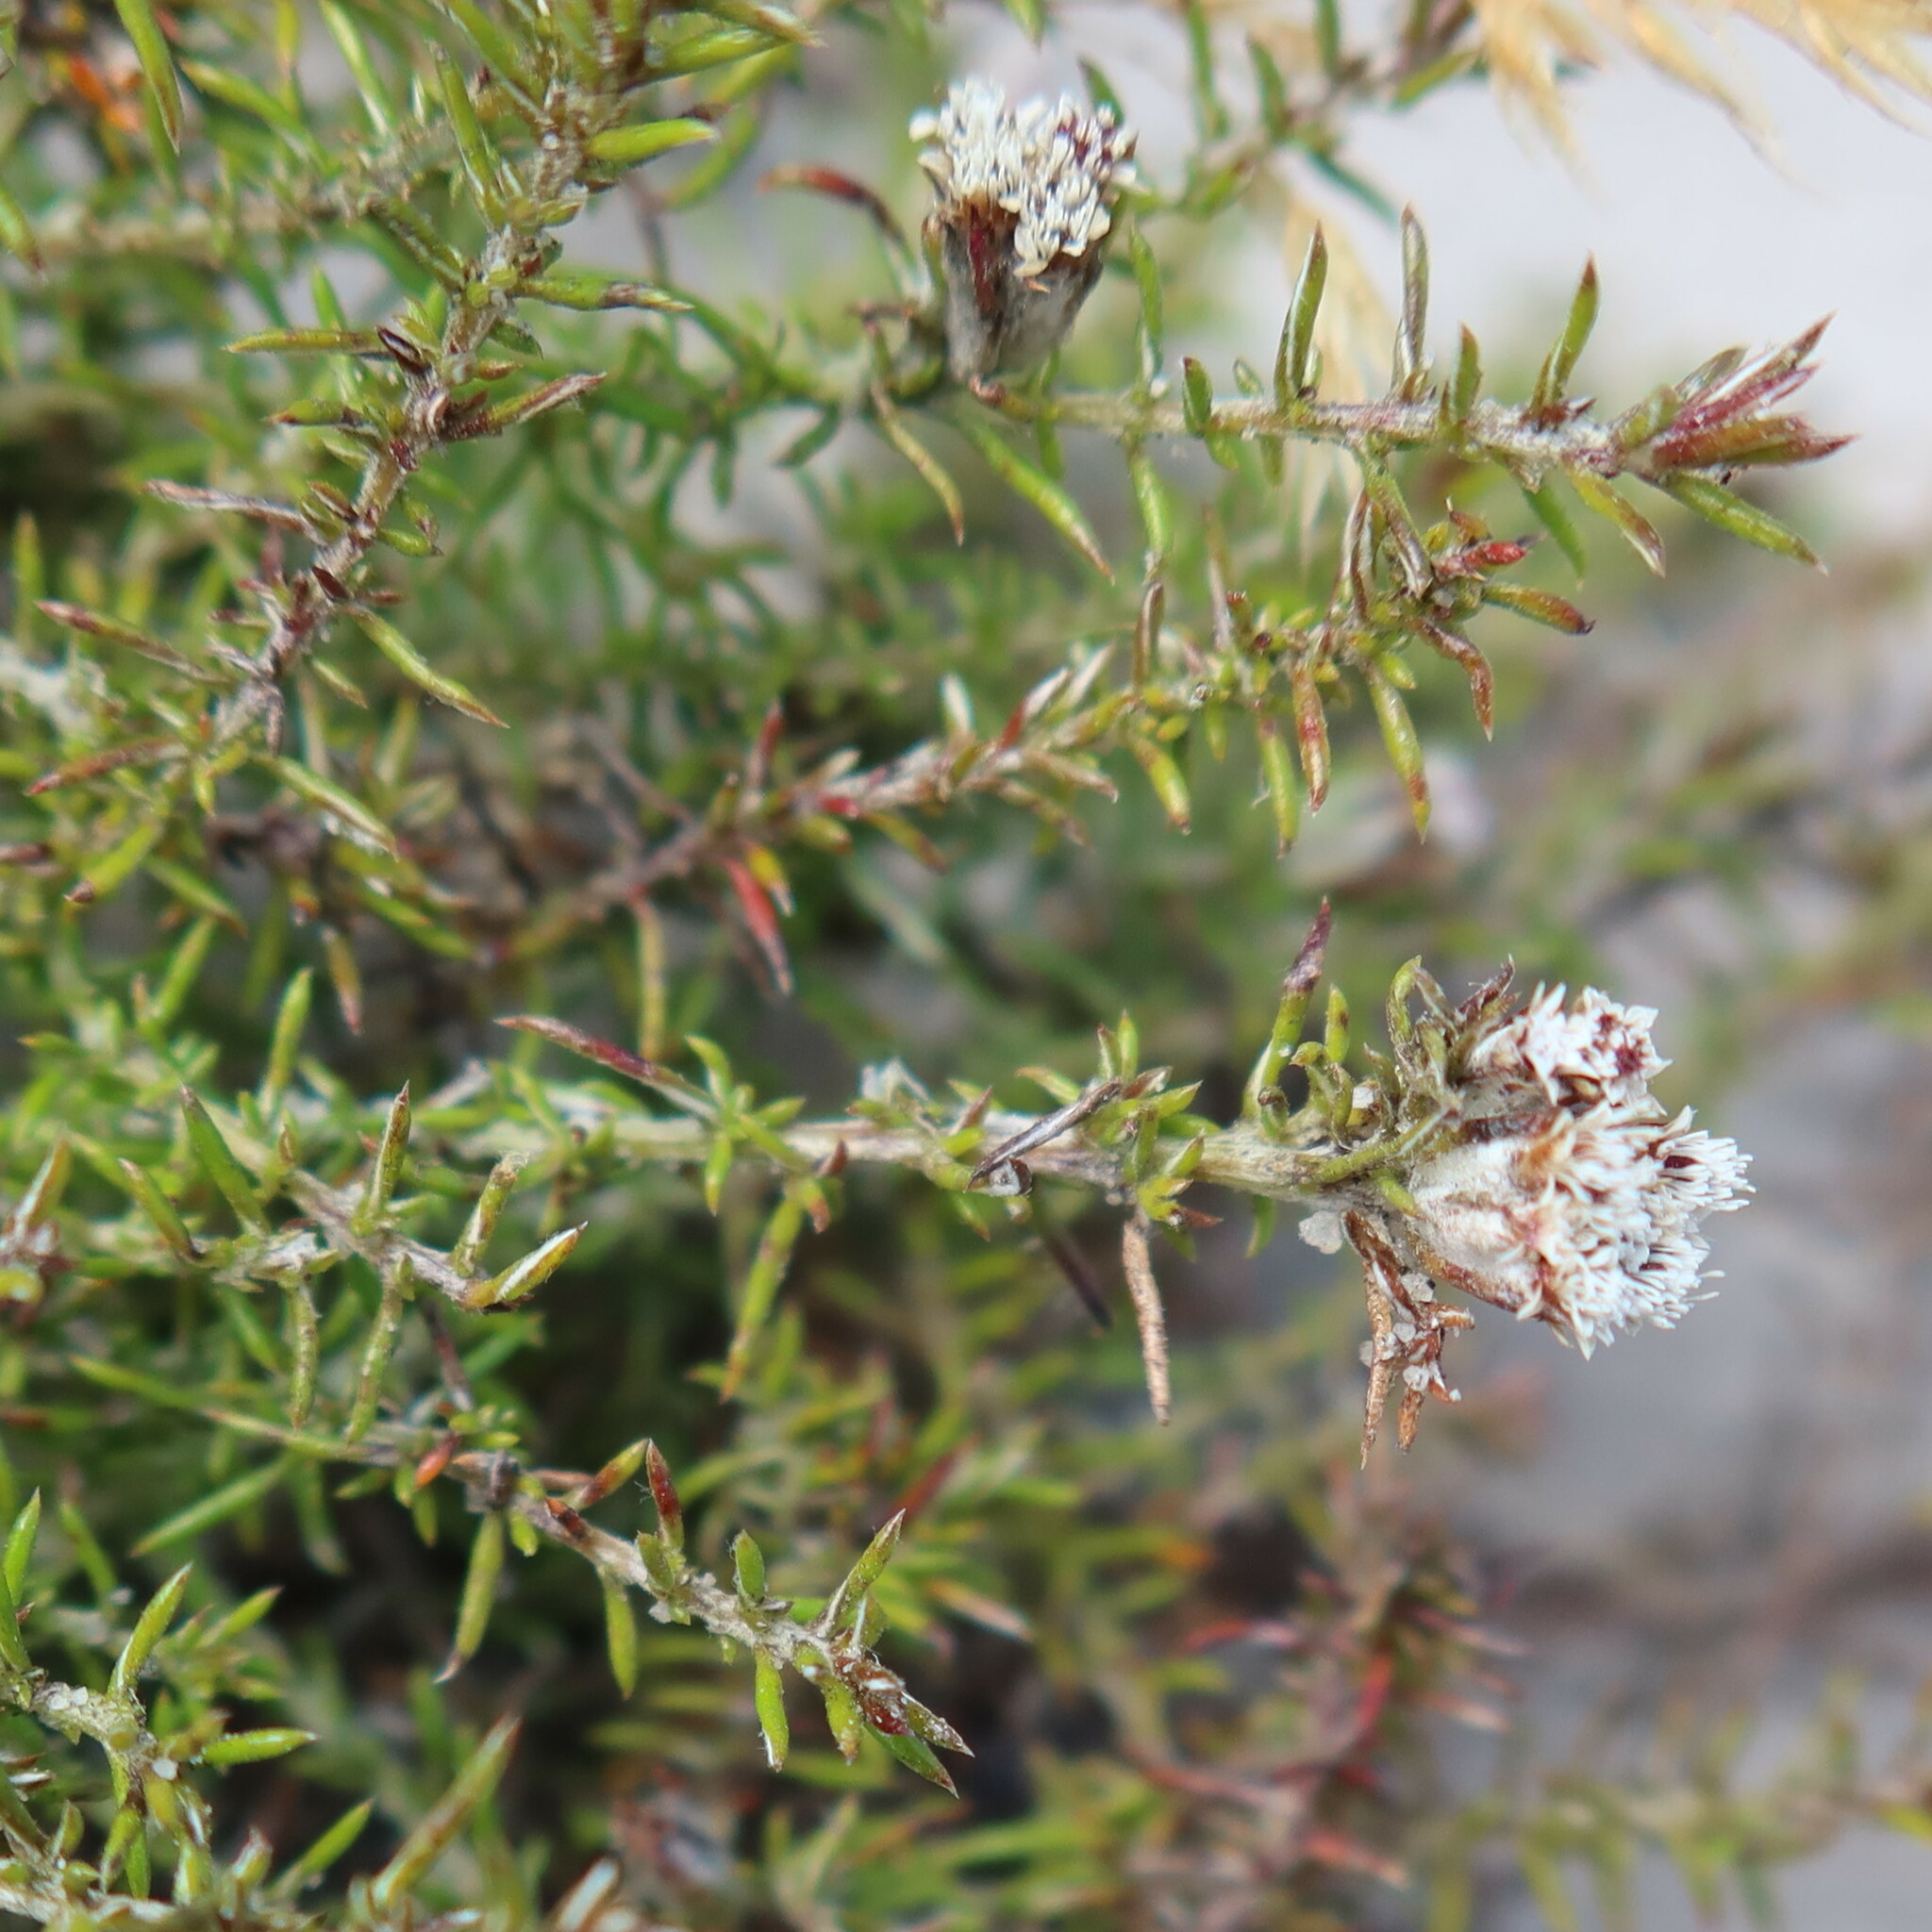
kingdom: Plantae
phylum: Tracheophyta
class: Magnoliopsida
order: Asterales
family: Asteraceae
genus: Metalasia
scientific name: Metalasia divergens
